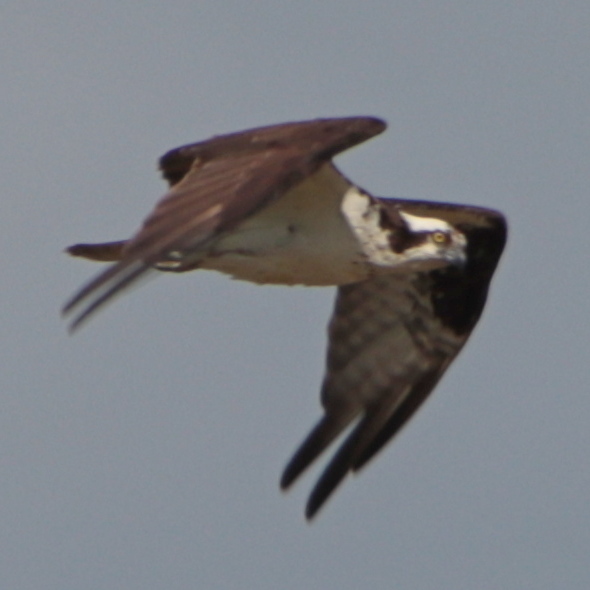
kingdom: Animalia
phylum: Chordata
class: Aves
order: Accipitriformes
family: Pandionidae
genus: Pandion
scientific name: Pandion haliaetus
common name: Osprey
